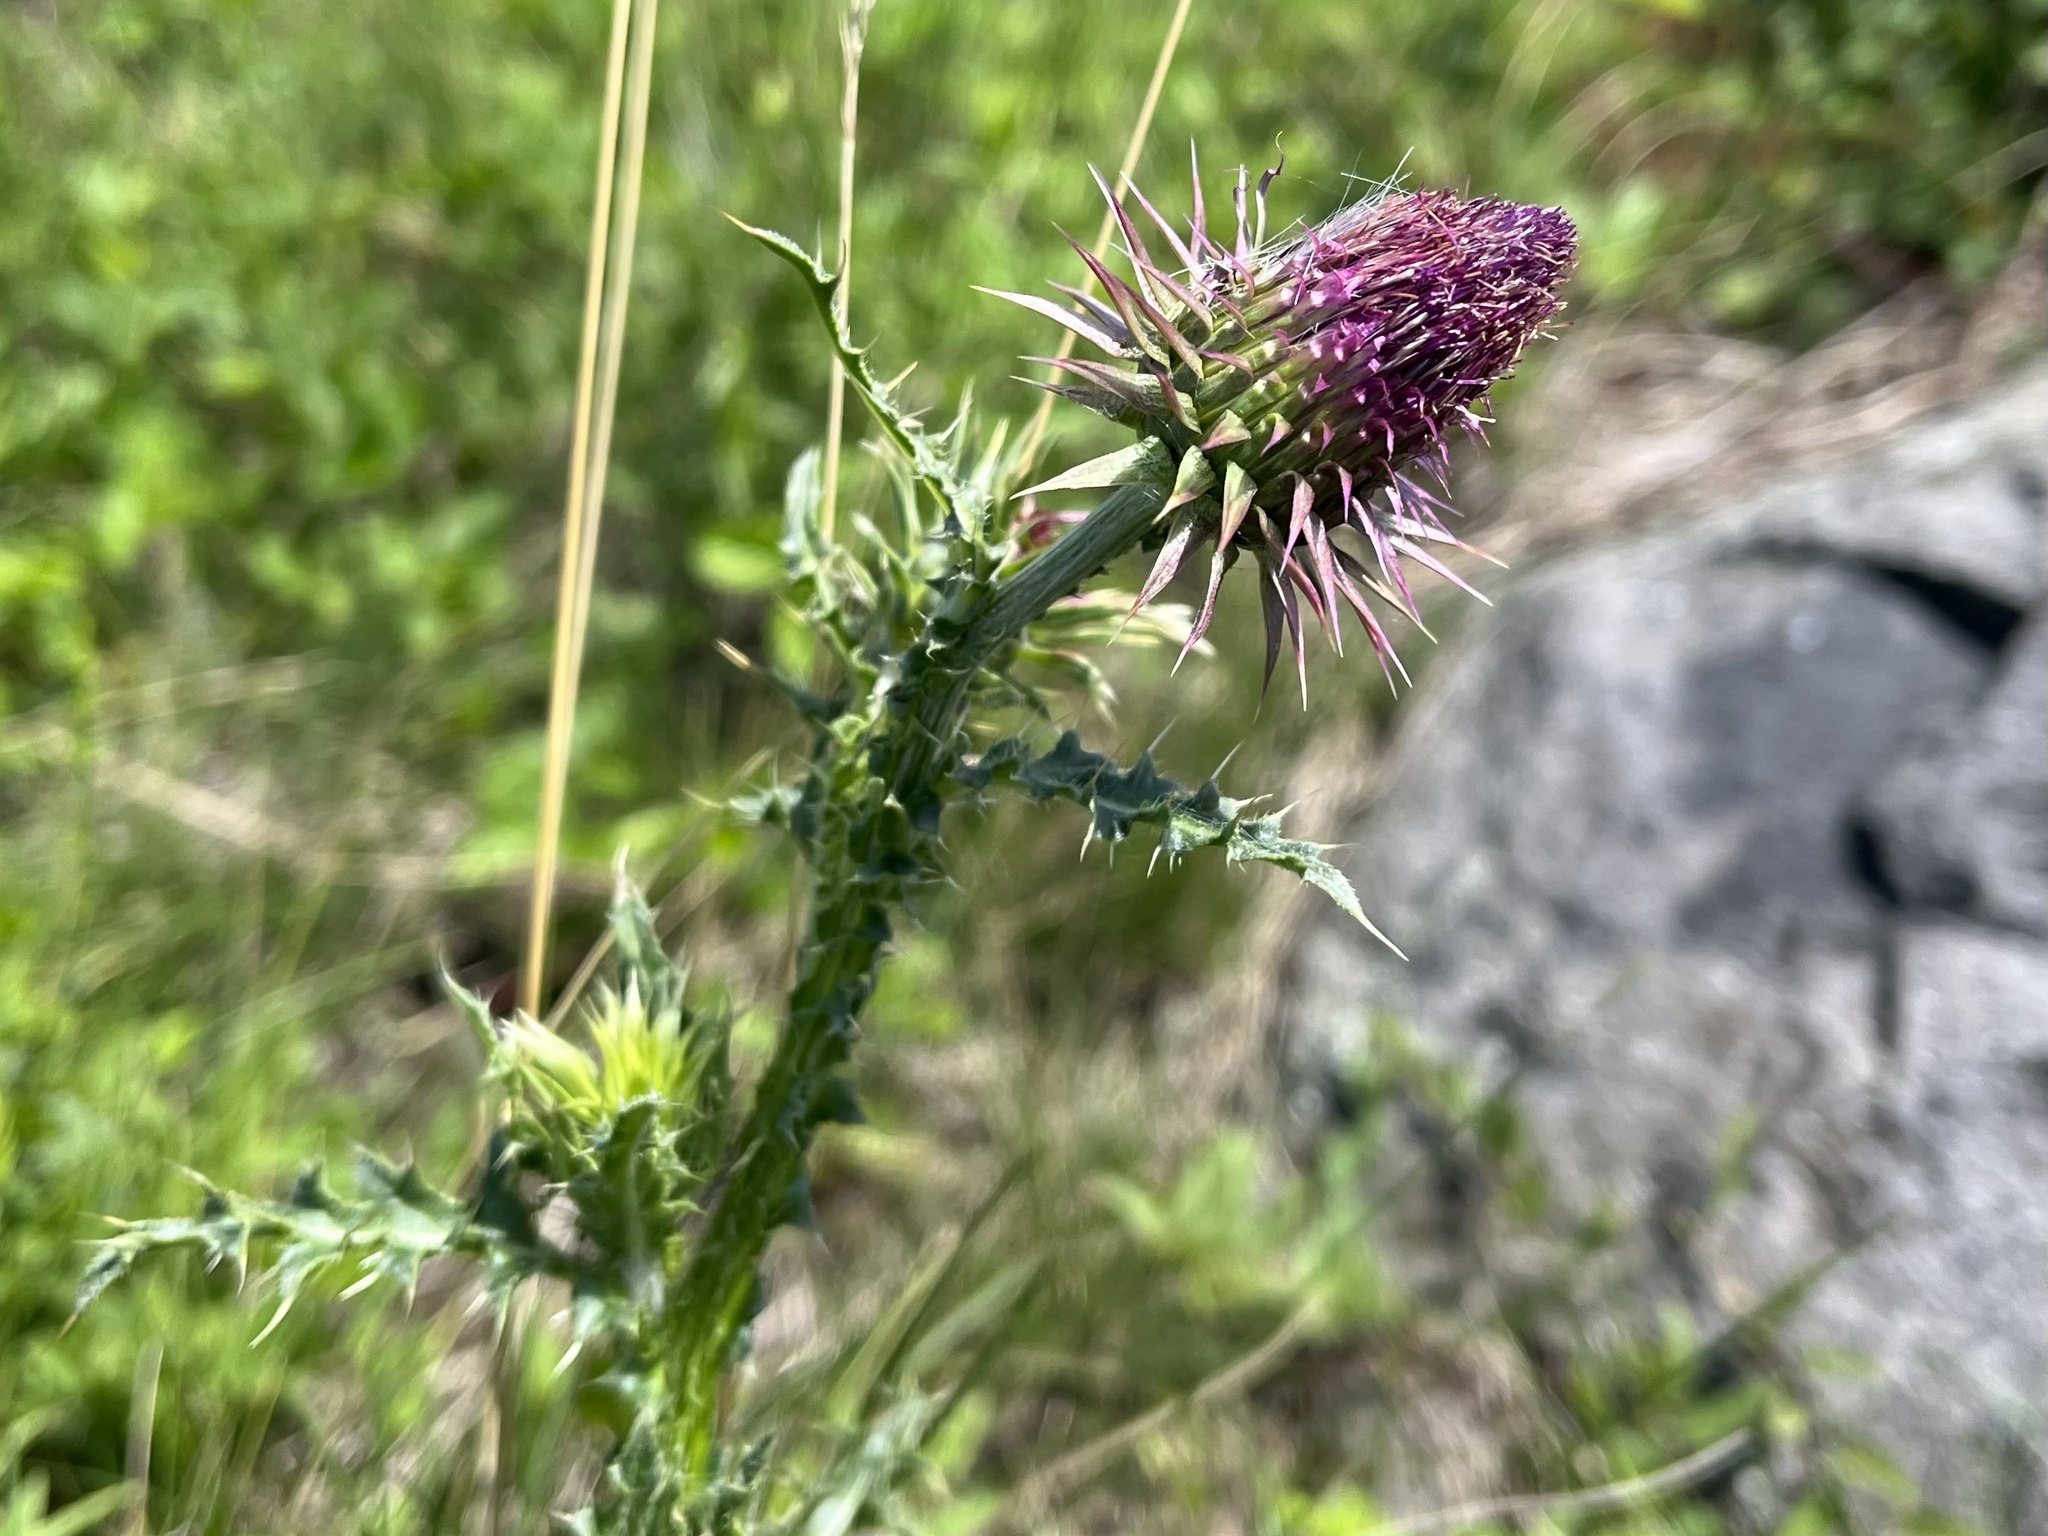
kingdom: Plantae
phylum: Tracheophyta
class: Magnoliopsida
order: Asterales
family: Asteraceae
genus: Carduus
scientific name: Carduus nutans
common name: Musk thistle
